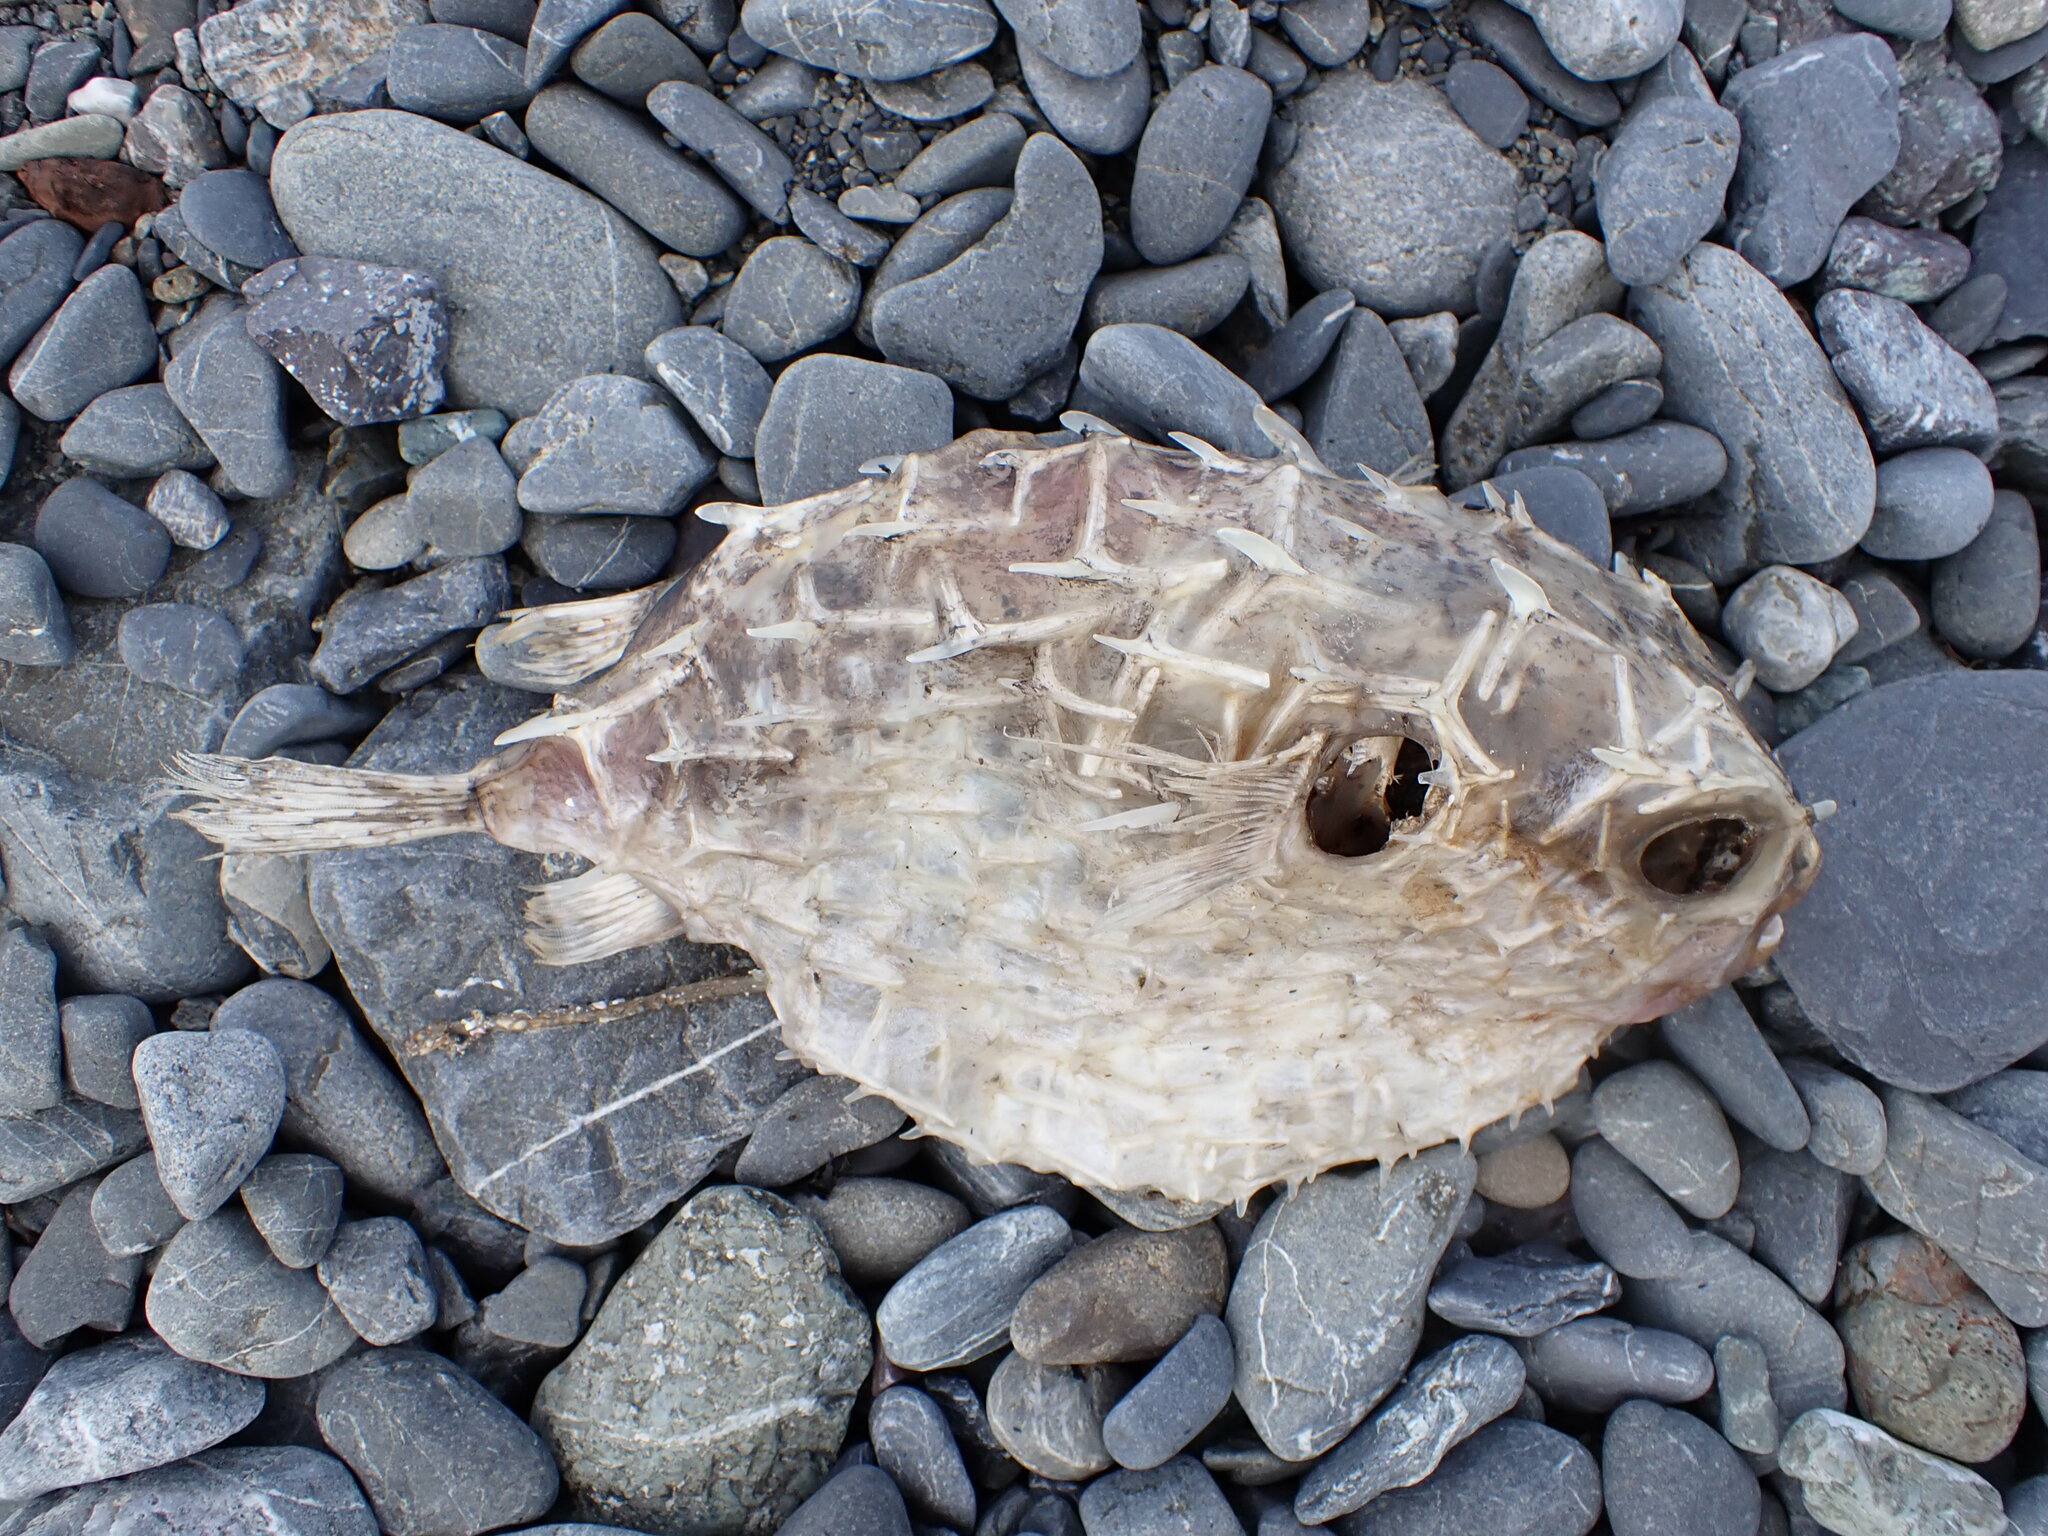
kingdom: Animalia
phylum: Chordata
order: Tetraodontiformes
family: Diodontidae
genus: Allomycterus
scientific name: Allomycterus pilatus
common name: No common name
